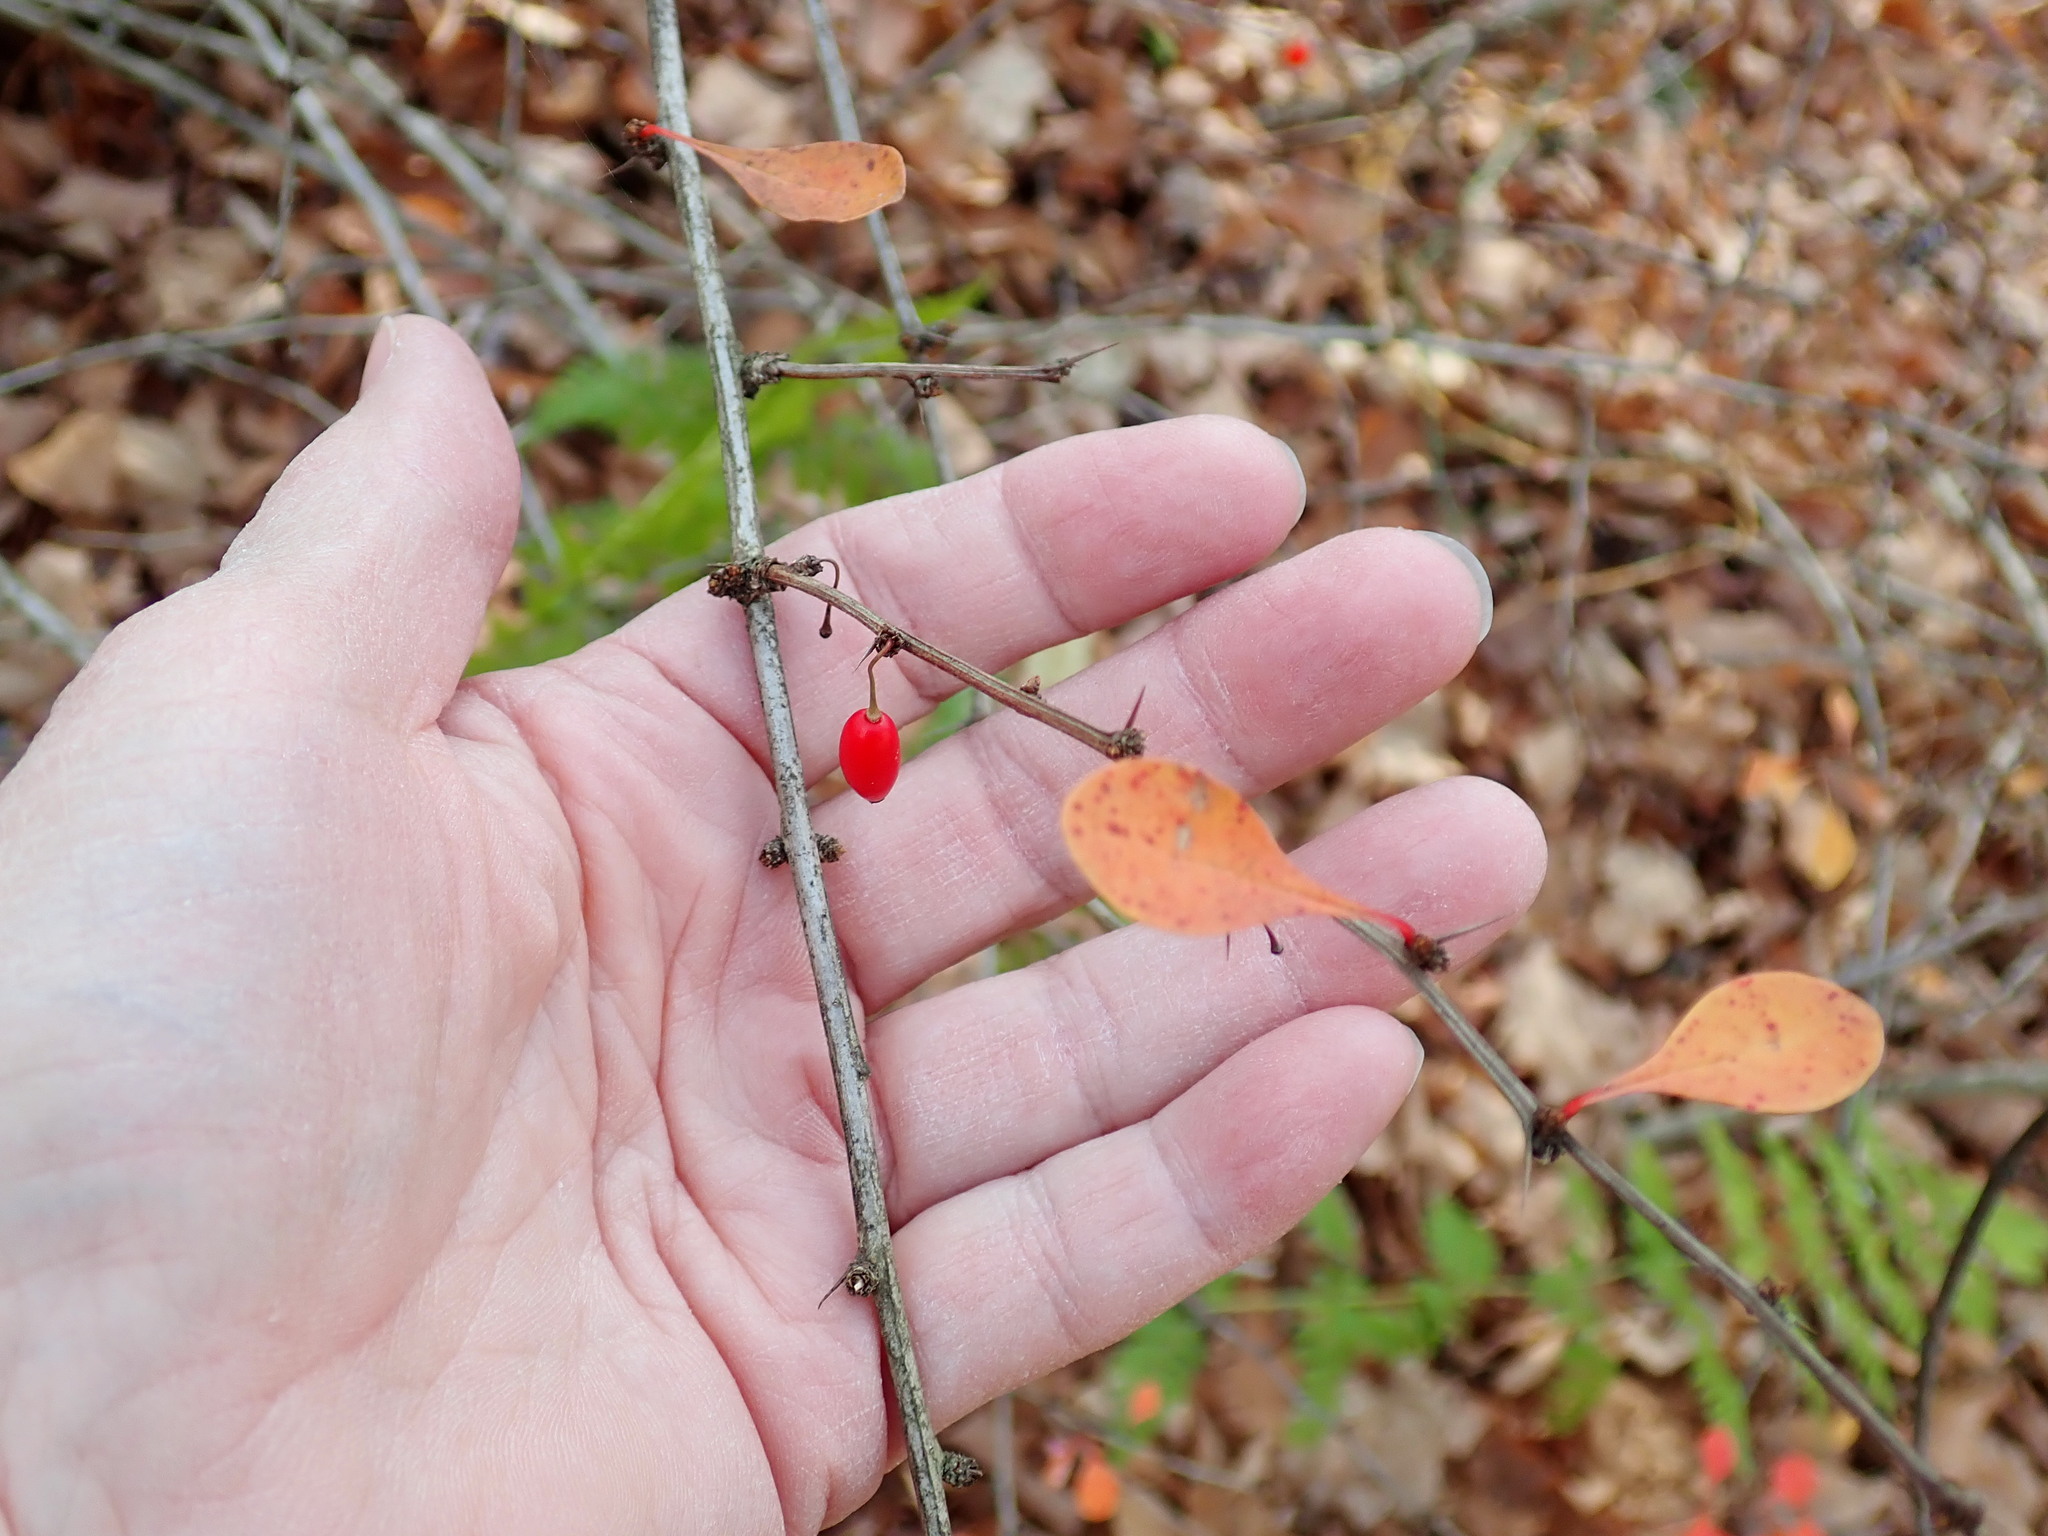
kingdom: Plantae
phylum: Tracheophyta
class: Magnoliopsida
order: Ranunculales
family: Berberidaceae
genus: Berberis
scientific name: Berberis thunbergii
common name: Japanese barberry
